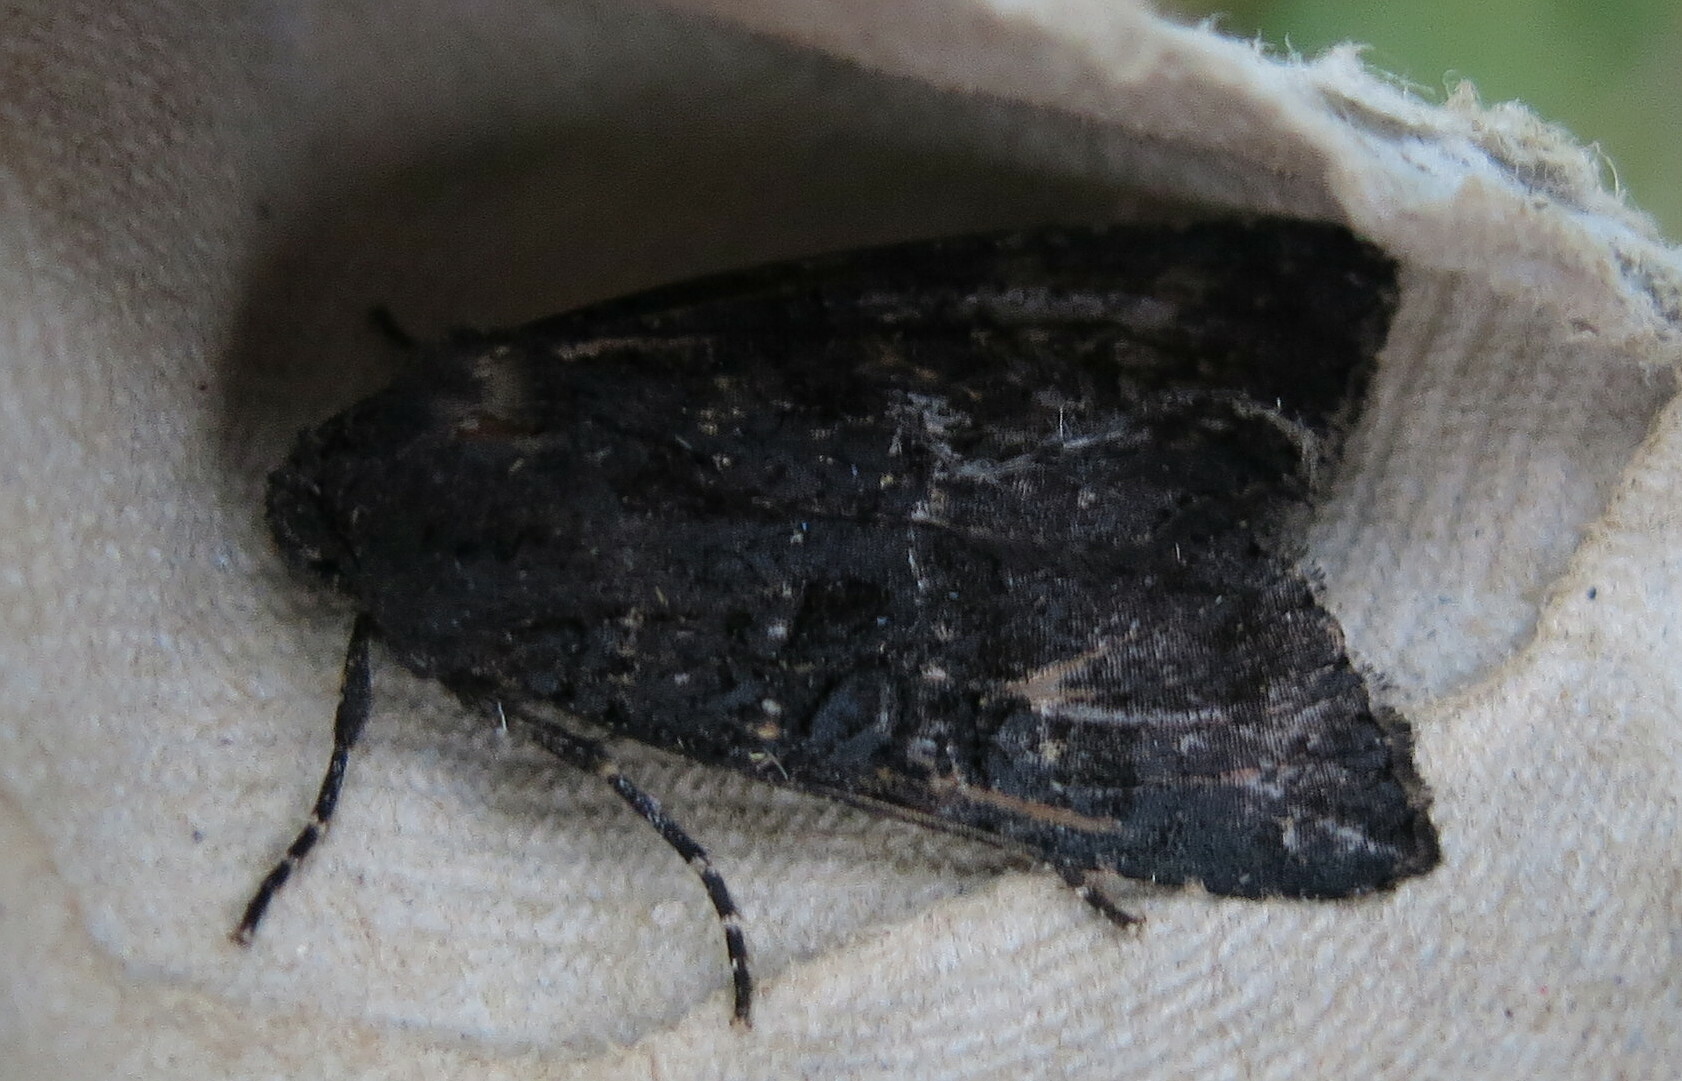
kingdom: Animalia
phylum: Arthropoda
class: Insecta
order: Lepidoptera
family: Noctuidae
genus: Aporophyla
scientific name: Aporophyla nigra
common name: Black rustic
